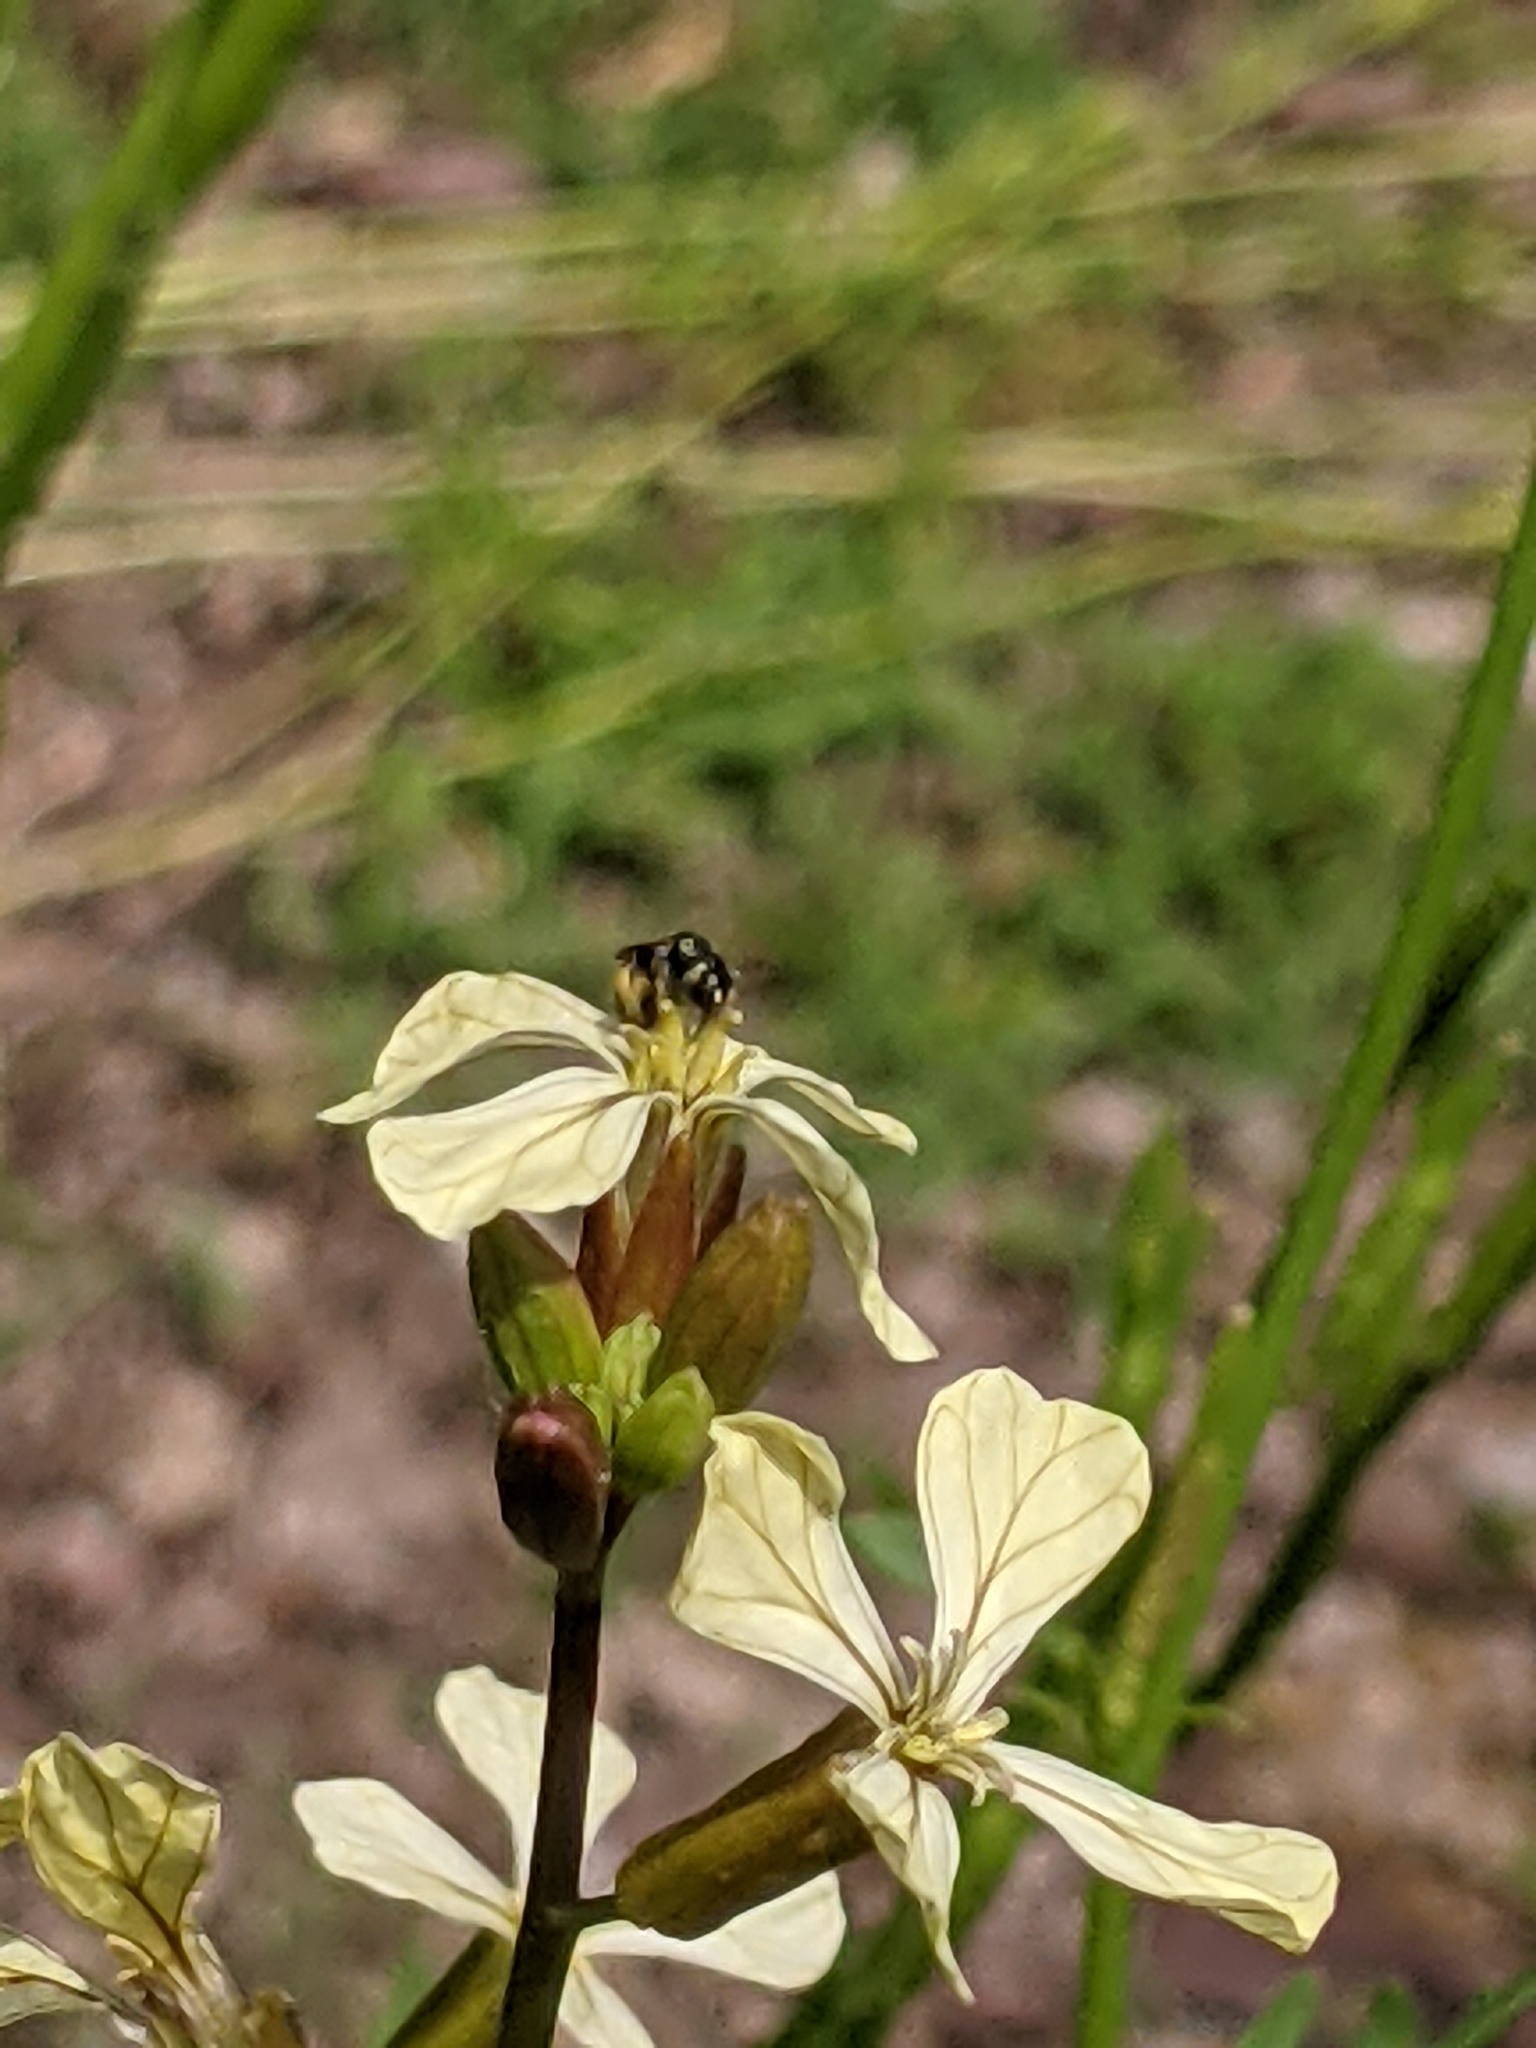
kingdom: Animalia
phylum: Arthropoda
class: Insecta
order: Hymenoptera
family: Apidae
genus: Zadontomerus
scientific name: Zadontomerus
